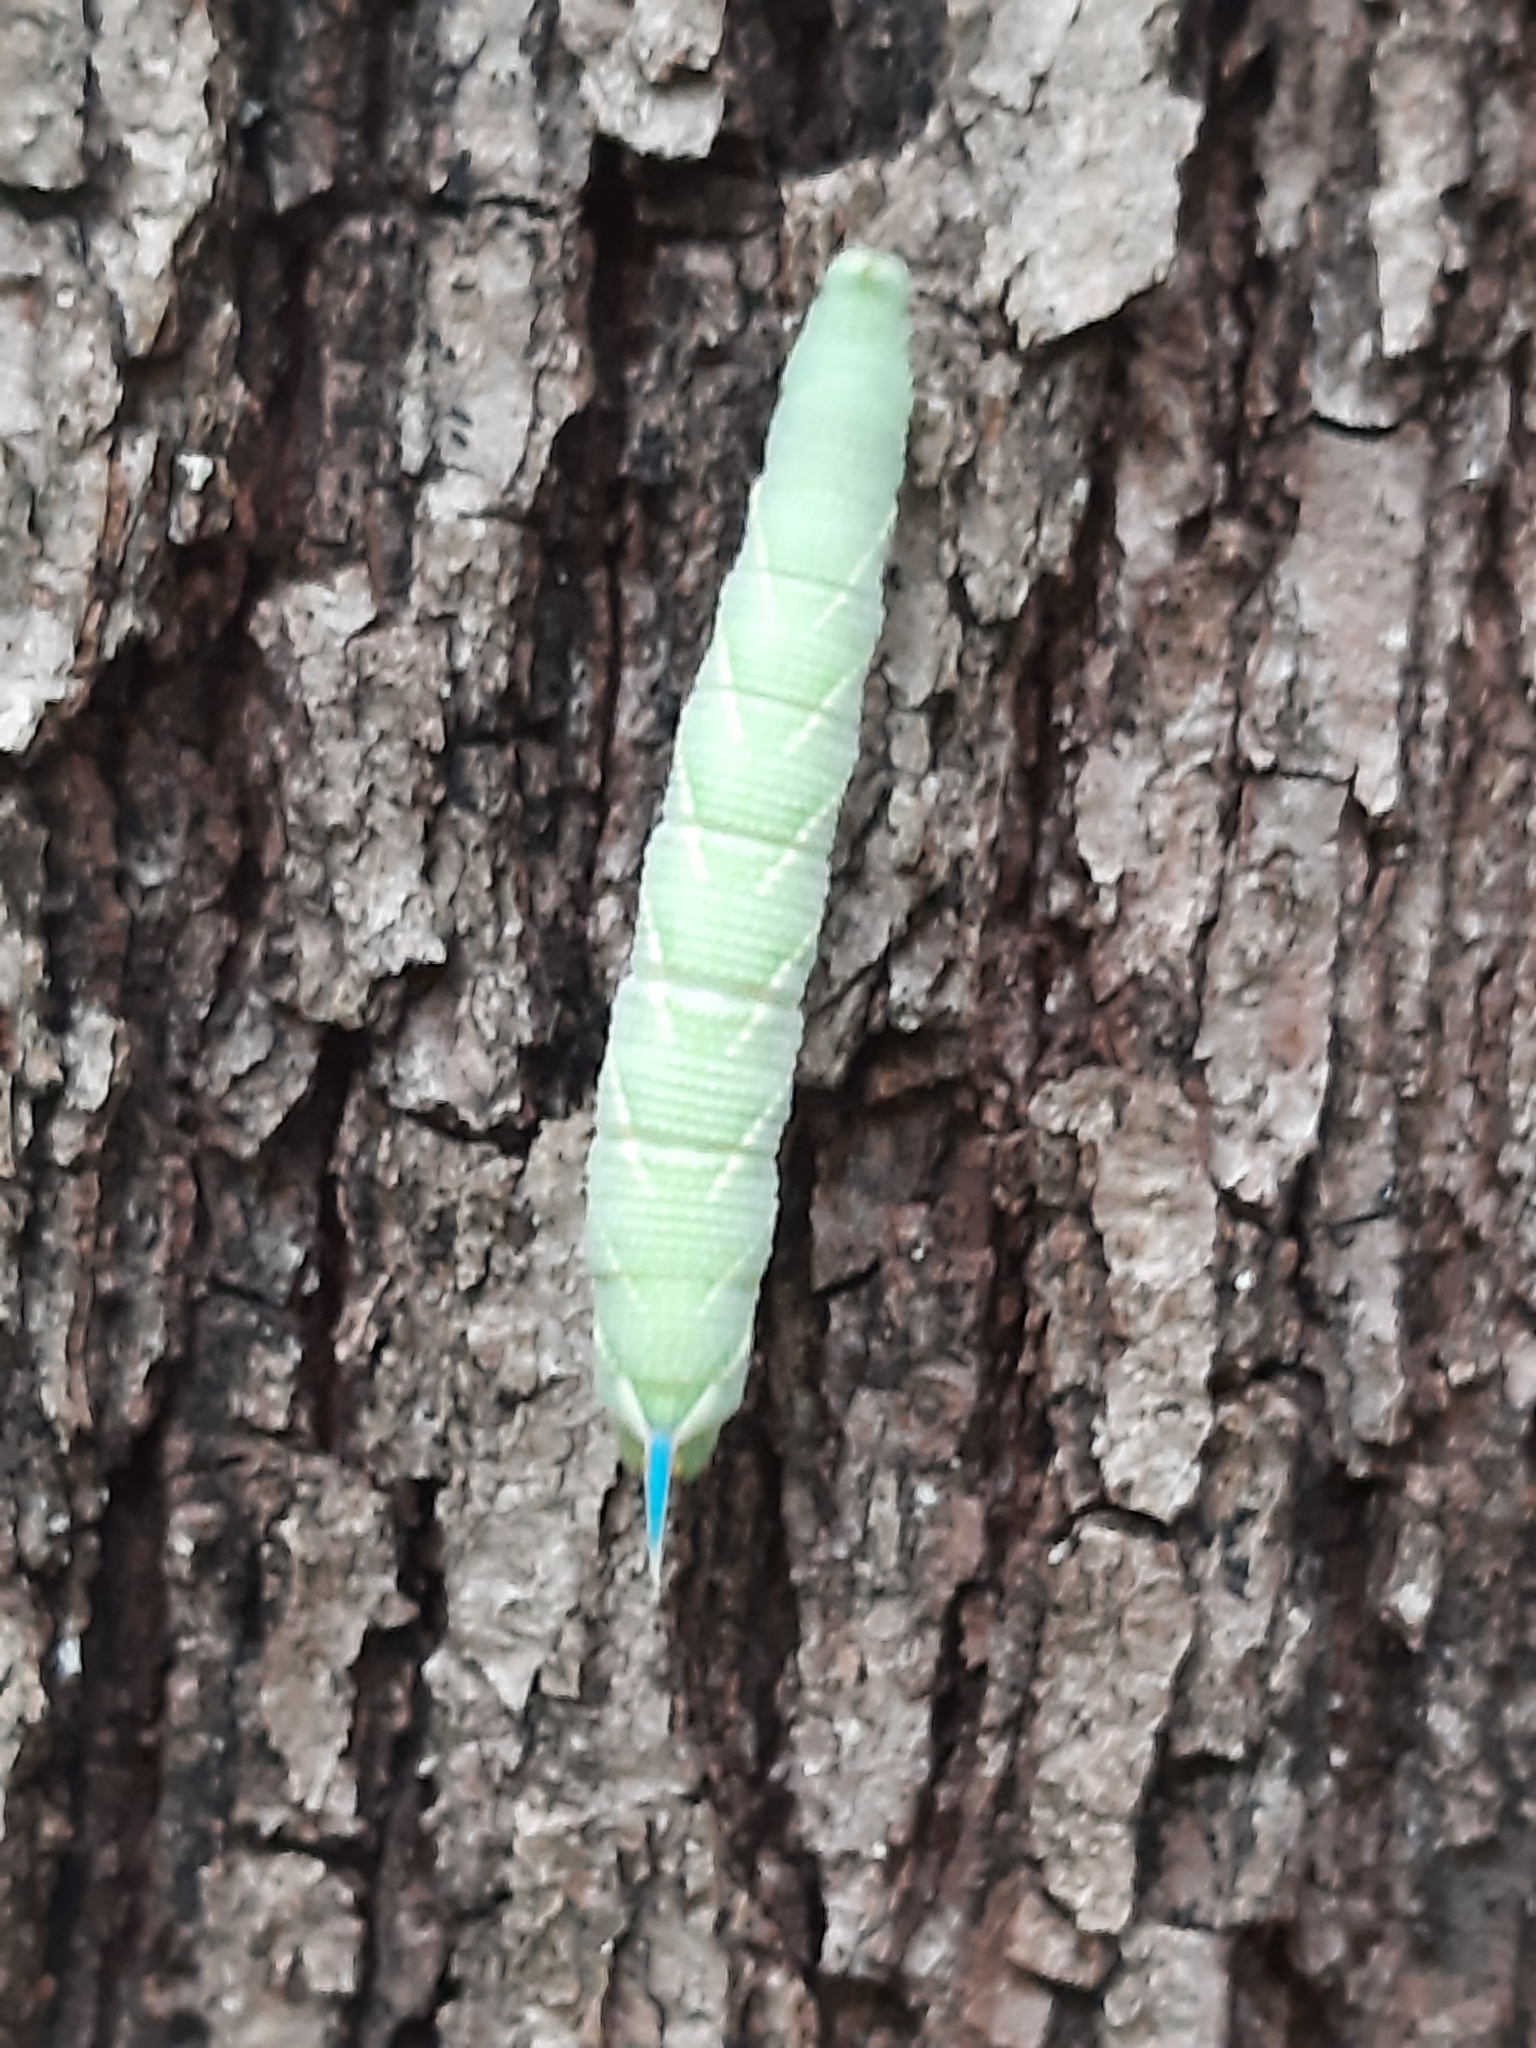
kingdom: Animalia
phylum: Arthropoda
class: Insecta
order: Lepidoptera
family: Sphingidae
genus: Mimas
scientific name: Mimas tiliae
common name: Lime hawk-moth
